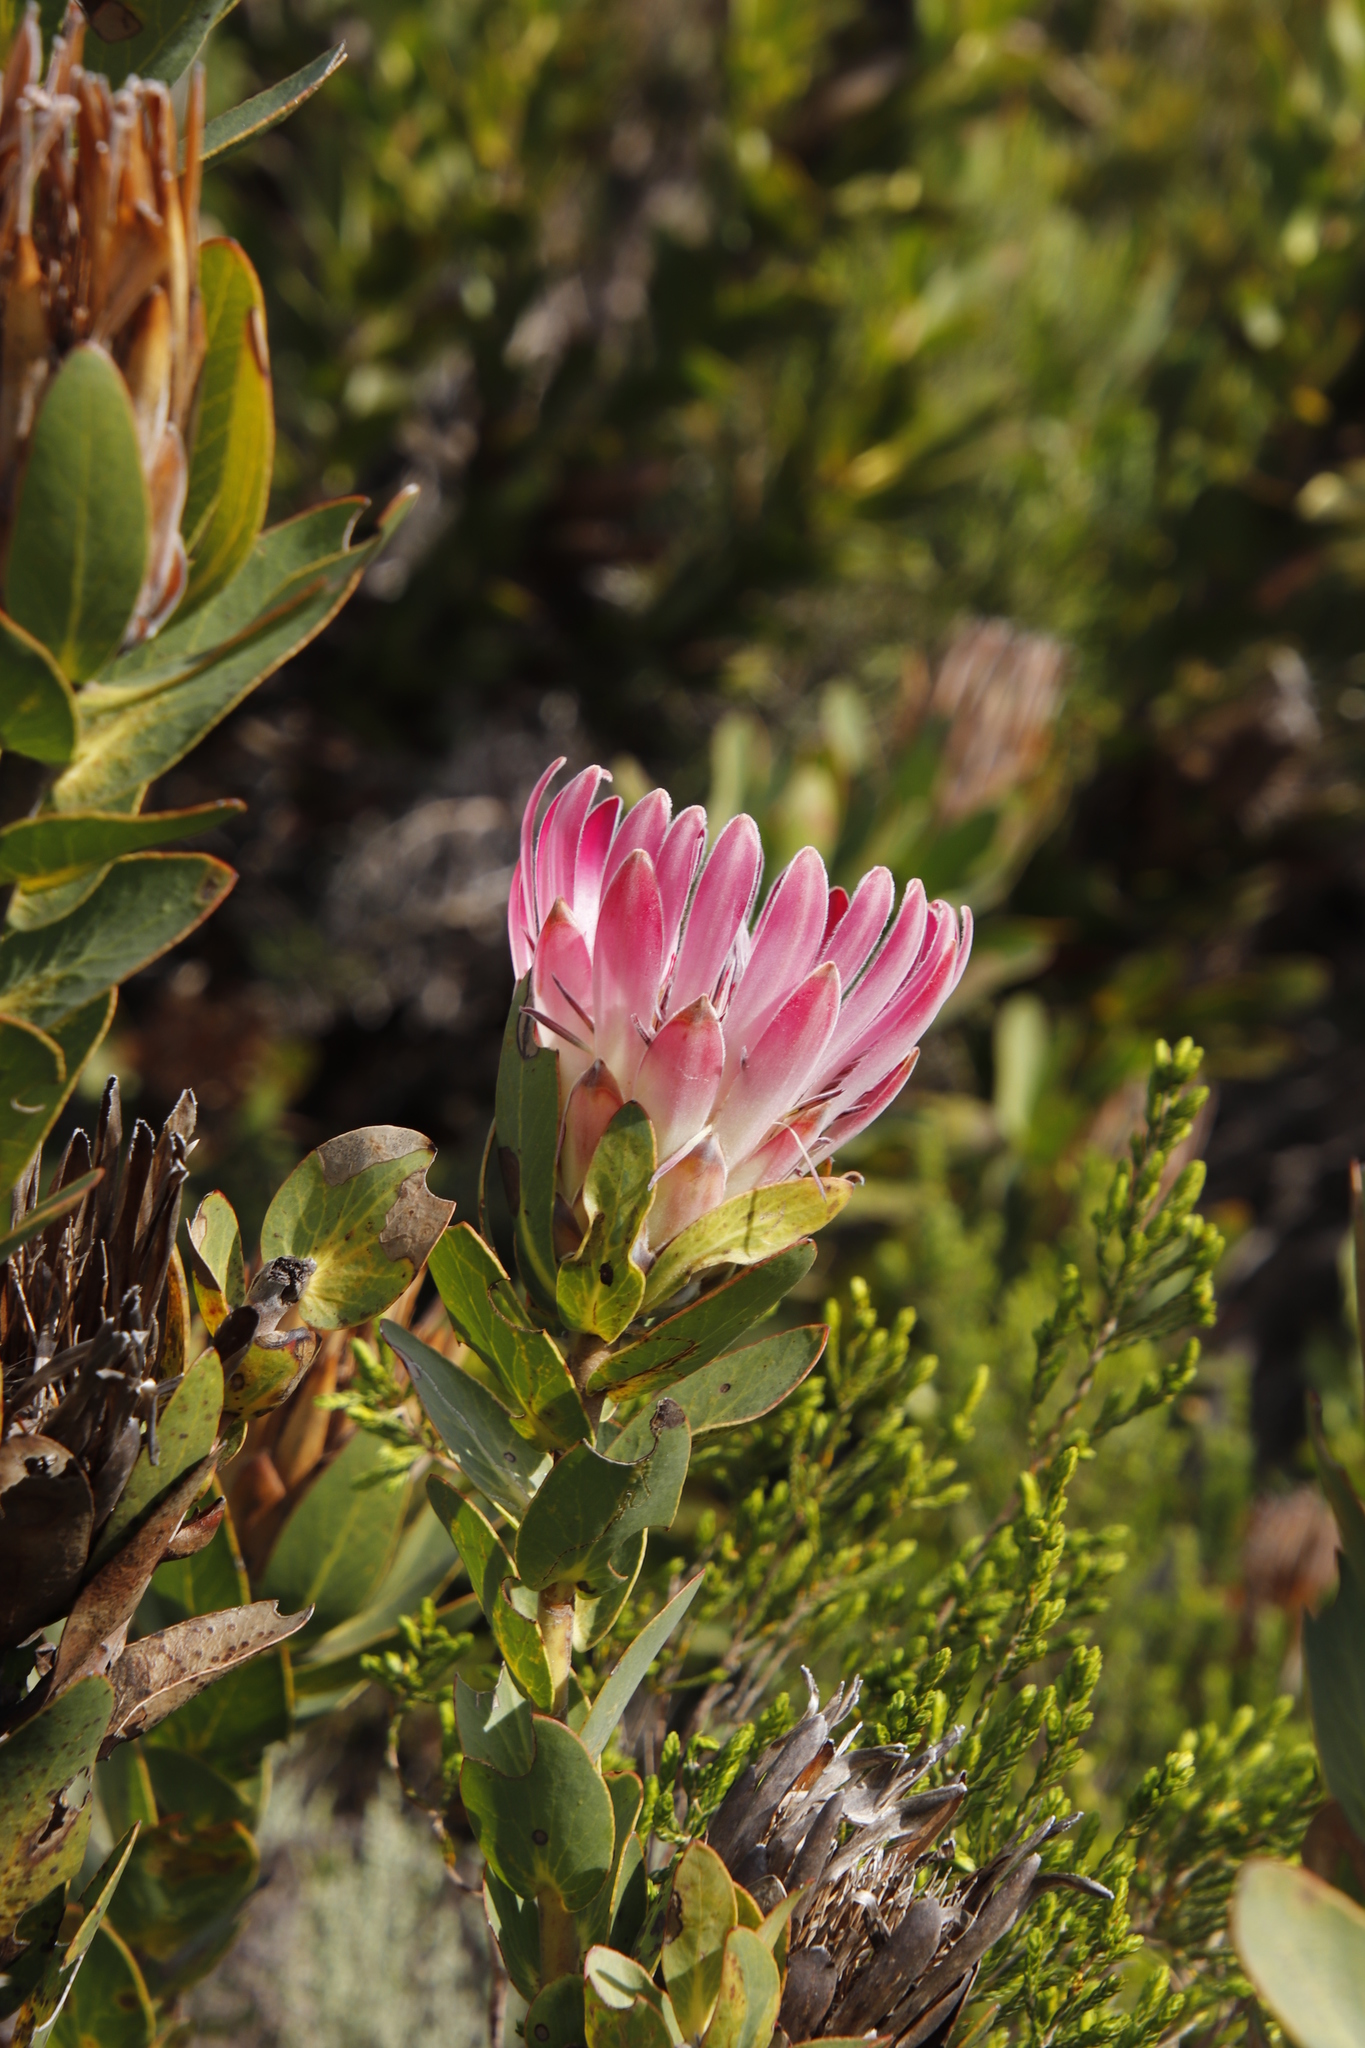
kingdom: Plantae
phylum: Tracheophyta
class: Magnoliopsida
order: Proteales
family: Proteaceae
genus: Protea
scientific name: Protea compacta
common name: Bot river protea
